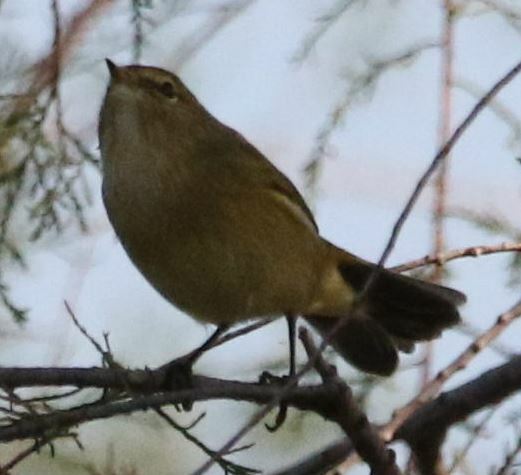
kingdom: Animalia
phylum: Chordata
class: Aves
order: Passeriformes
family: Phylloscopidae
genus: Phylloscopus
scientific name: Phylloscopus collybita
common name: Common chiffchaff
